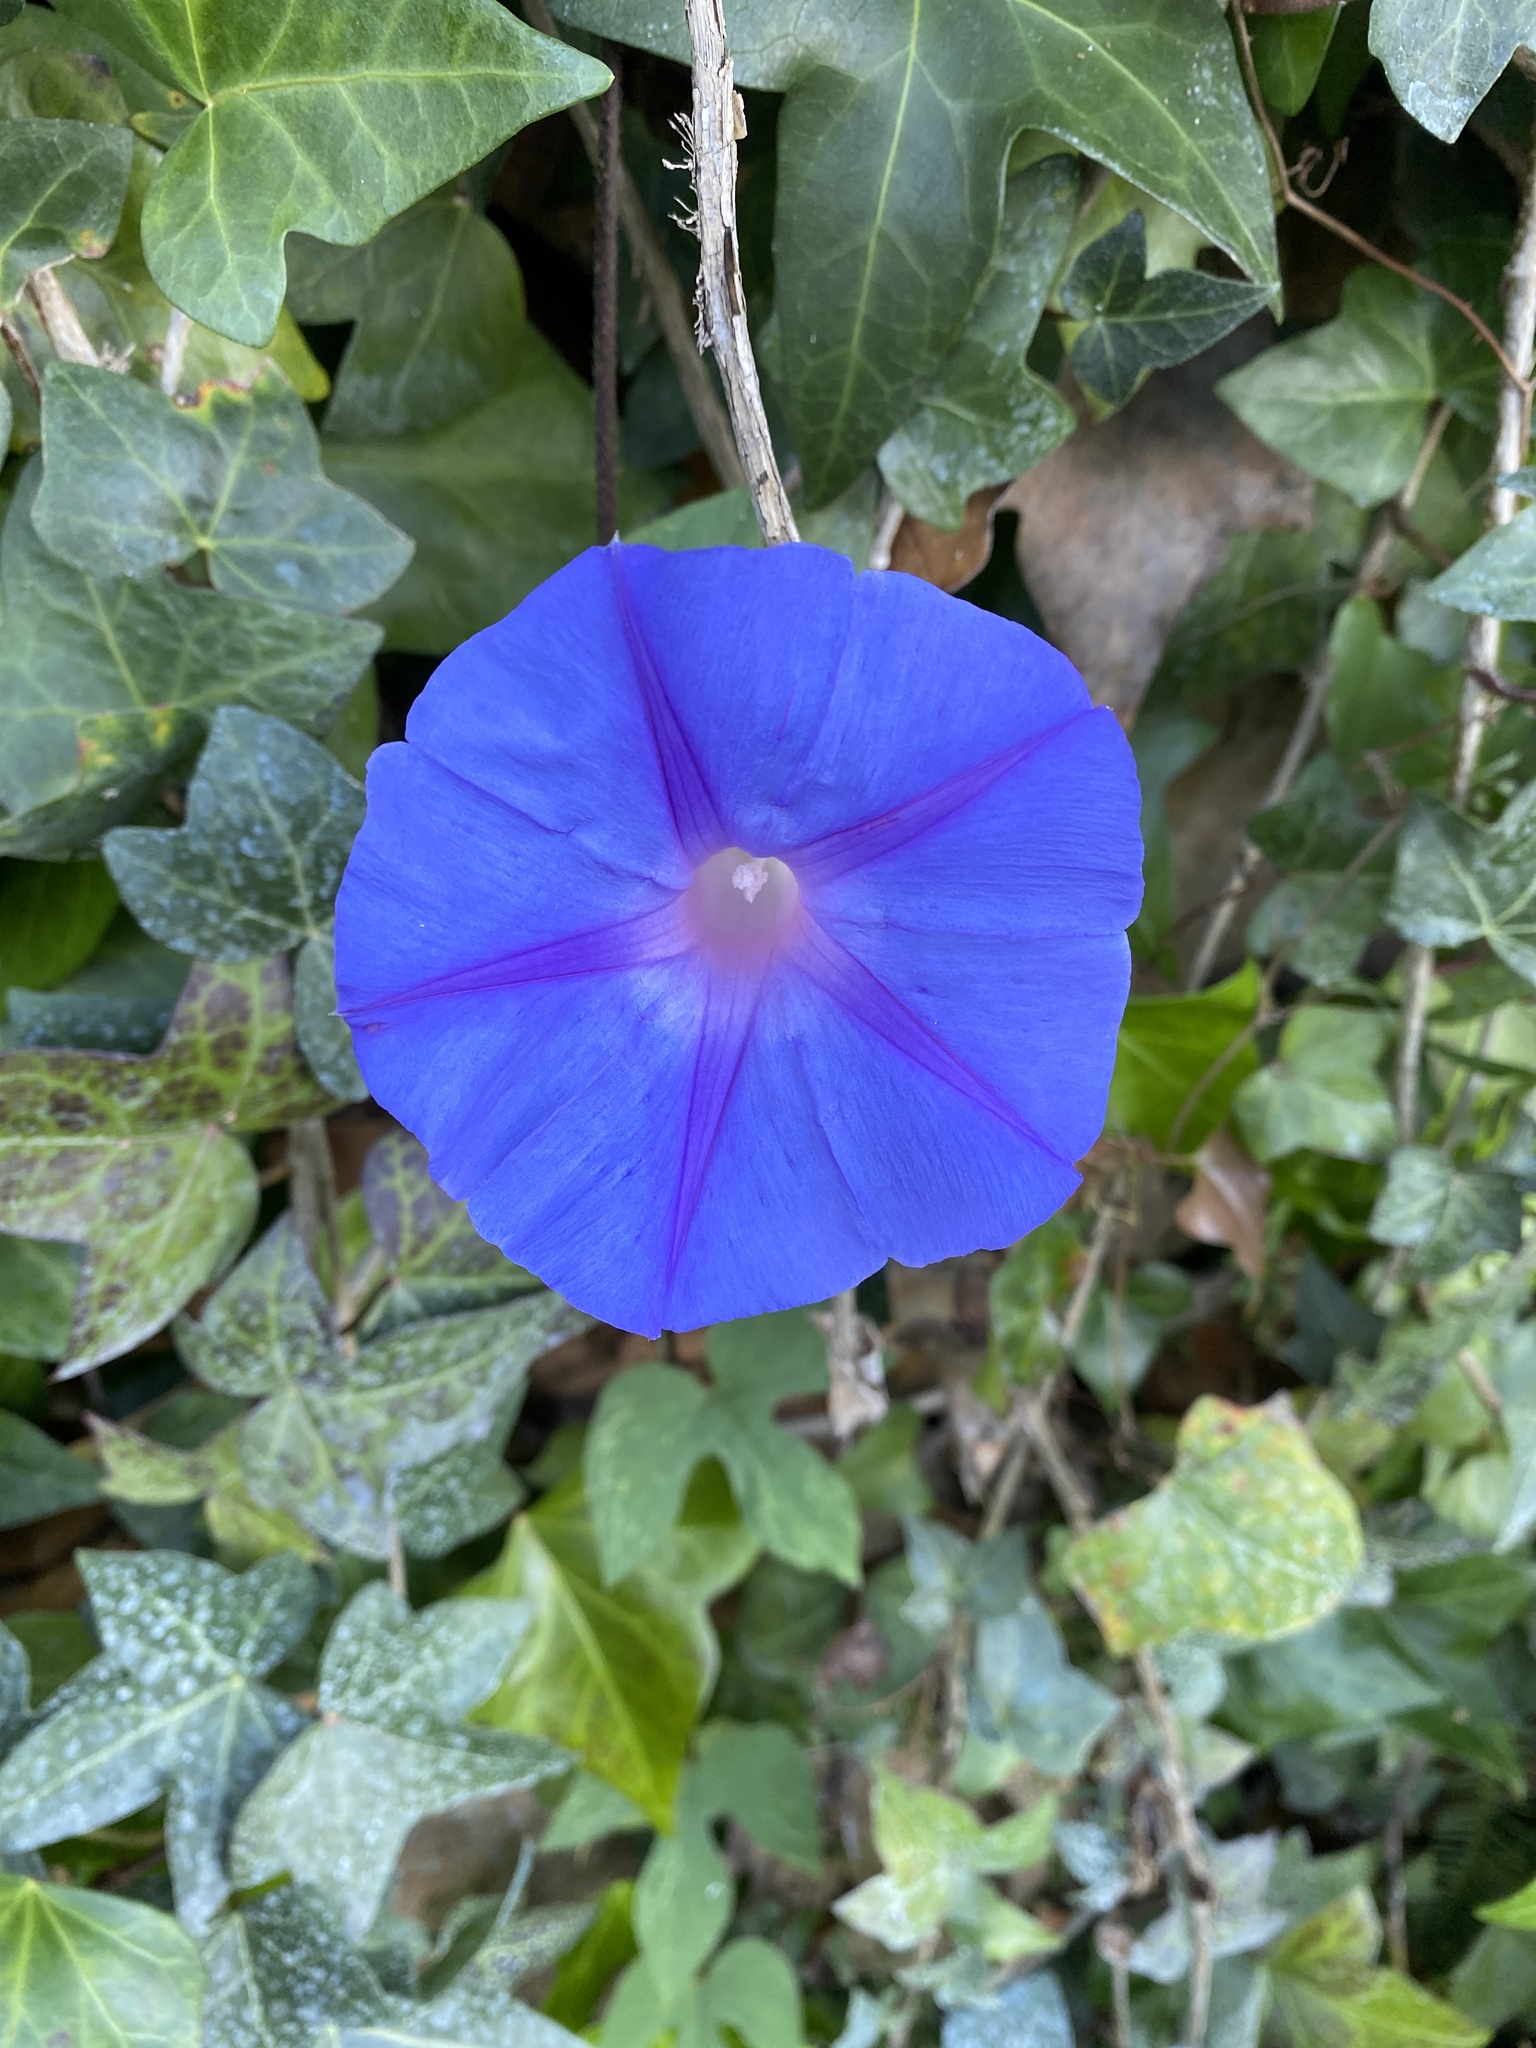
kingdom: Plantae
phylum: Tracheophyta
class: Magnoliopsida
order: Solanales
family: Convolvulaceae
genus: Ipomoea
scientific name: Ipomoea indica
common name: Blue dawnflower
